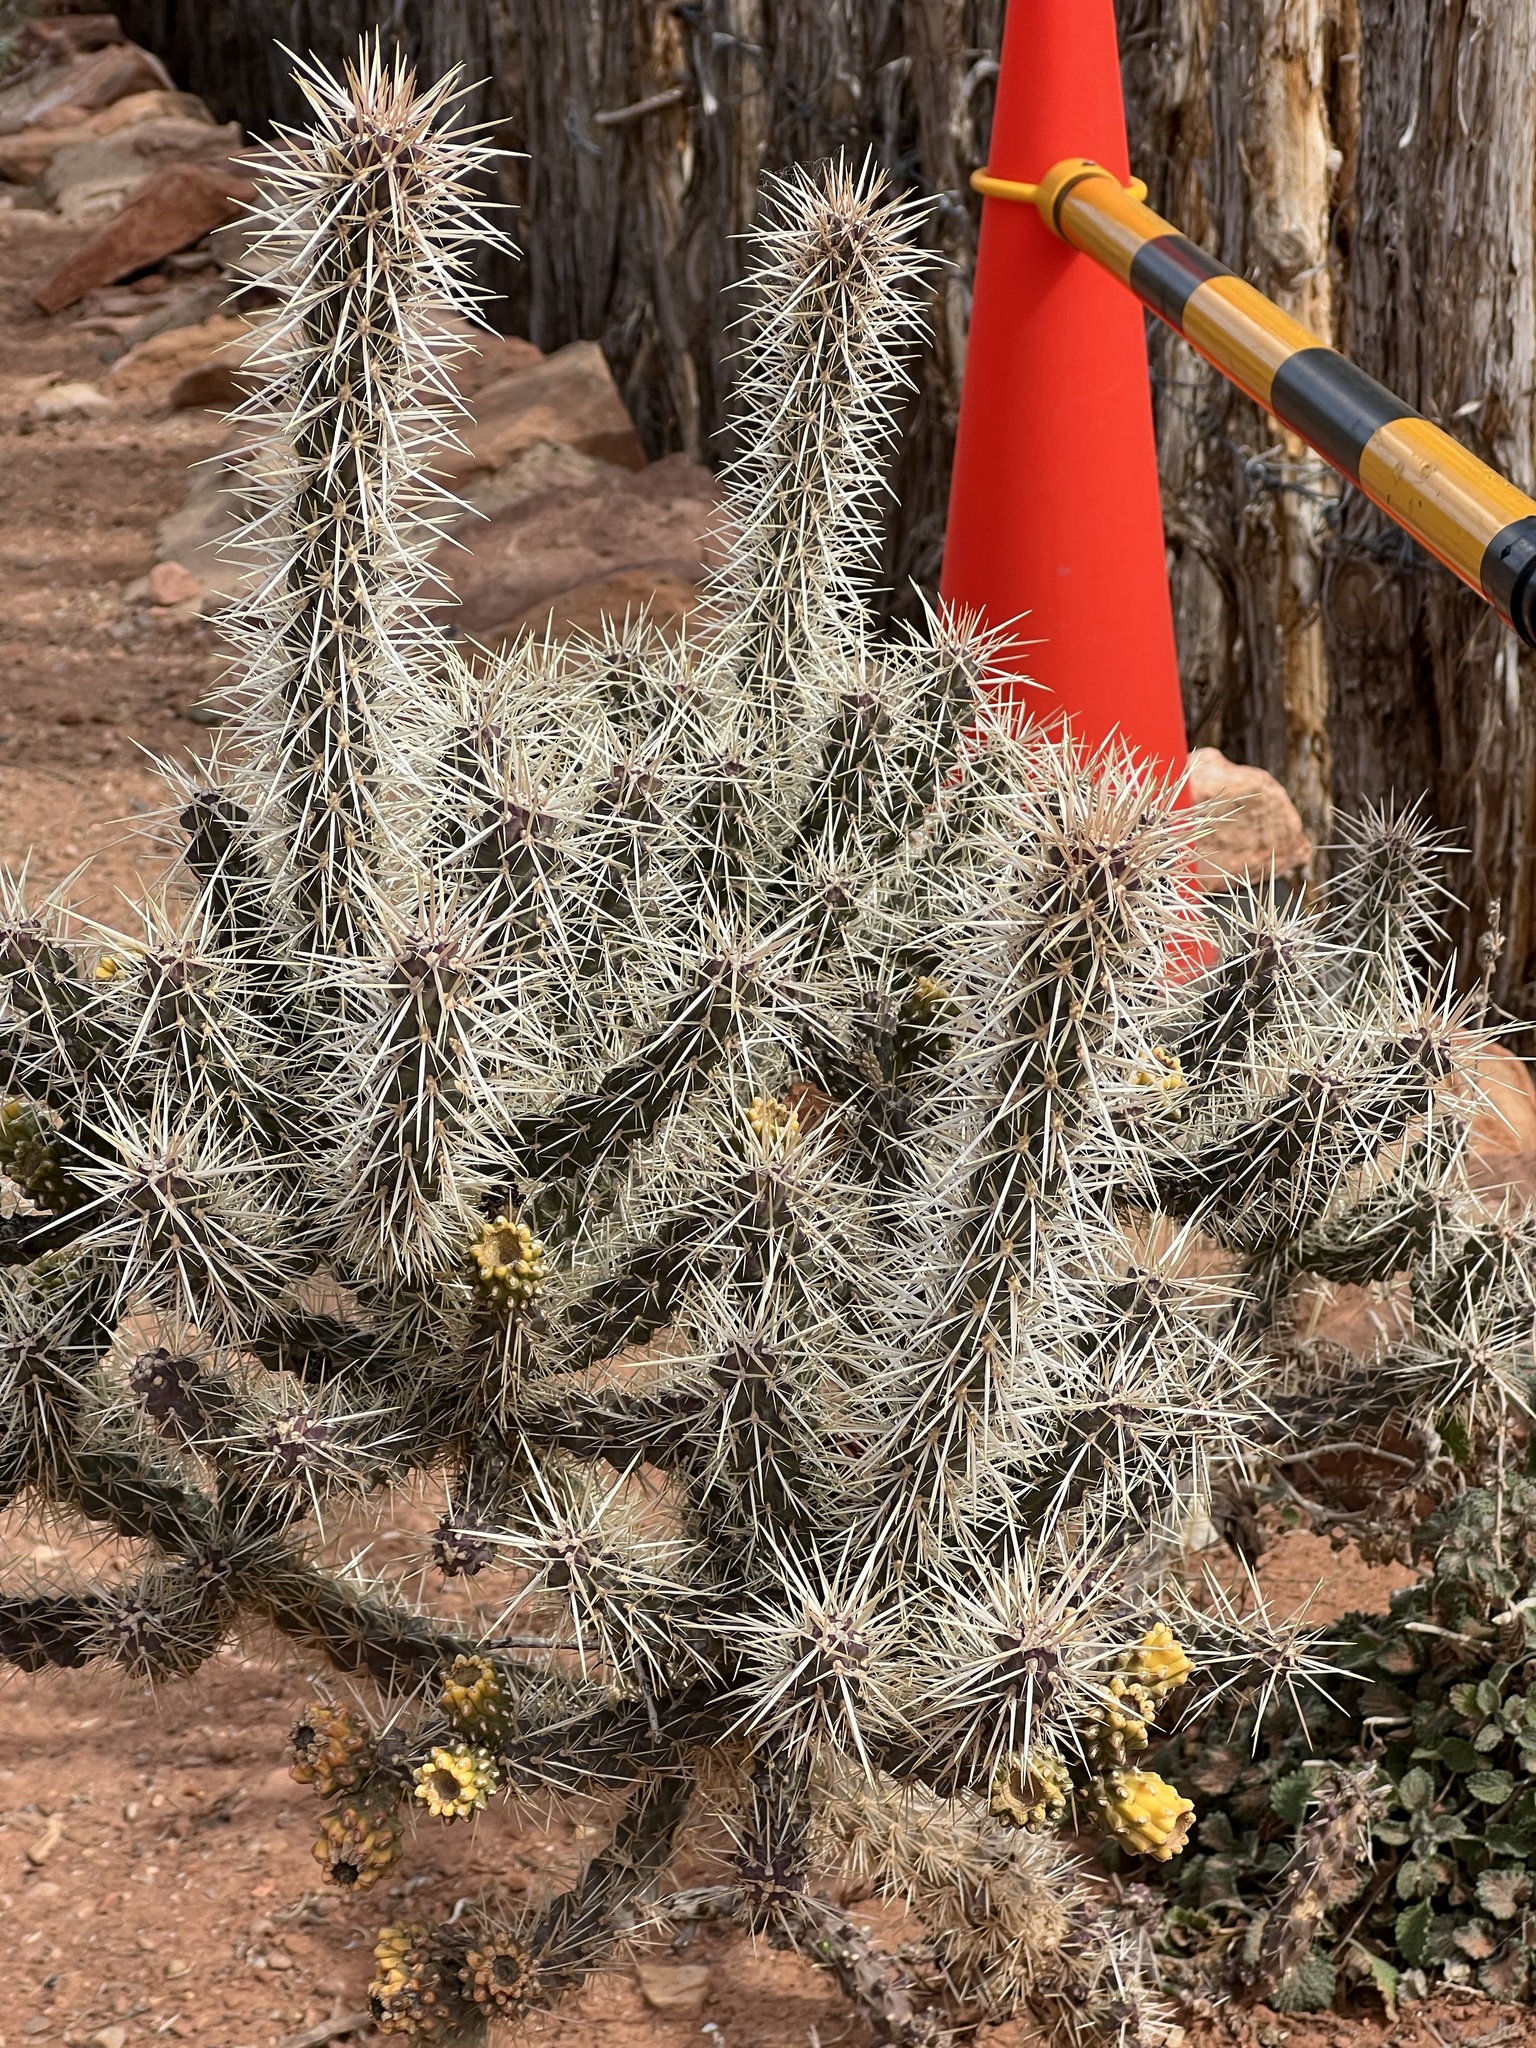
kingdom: Plantae
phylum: Tracheophyta
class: Magnoliopsida
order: Caryophyllales
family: Cactaceae
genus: Cylindropuntia
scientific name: Cylindropuntia whipplei
